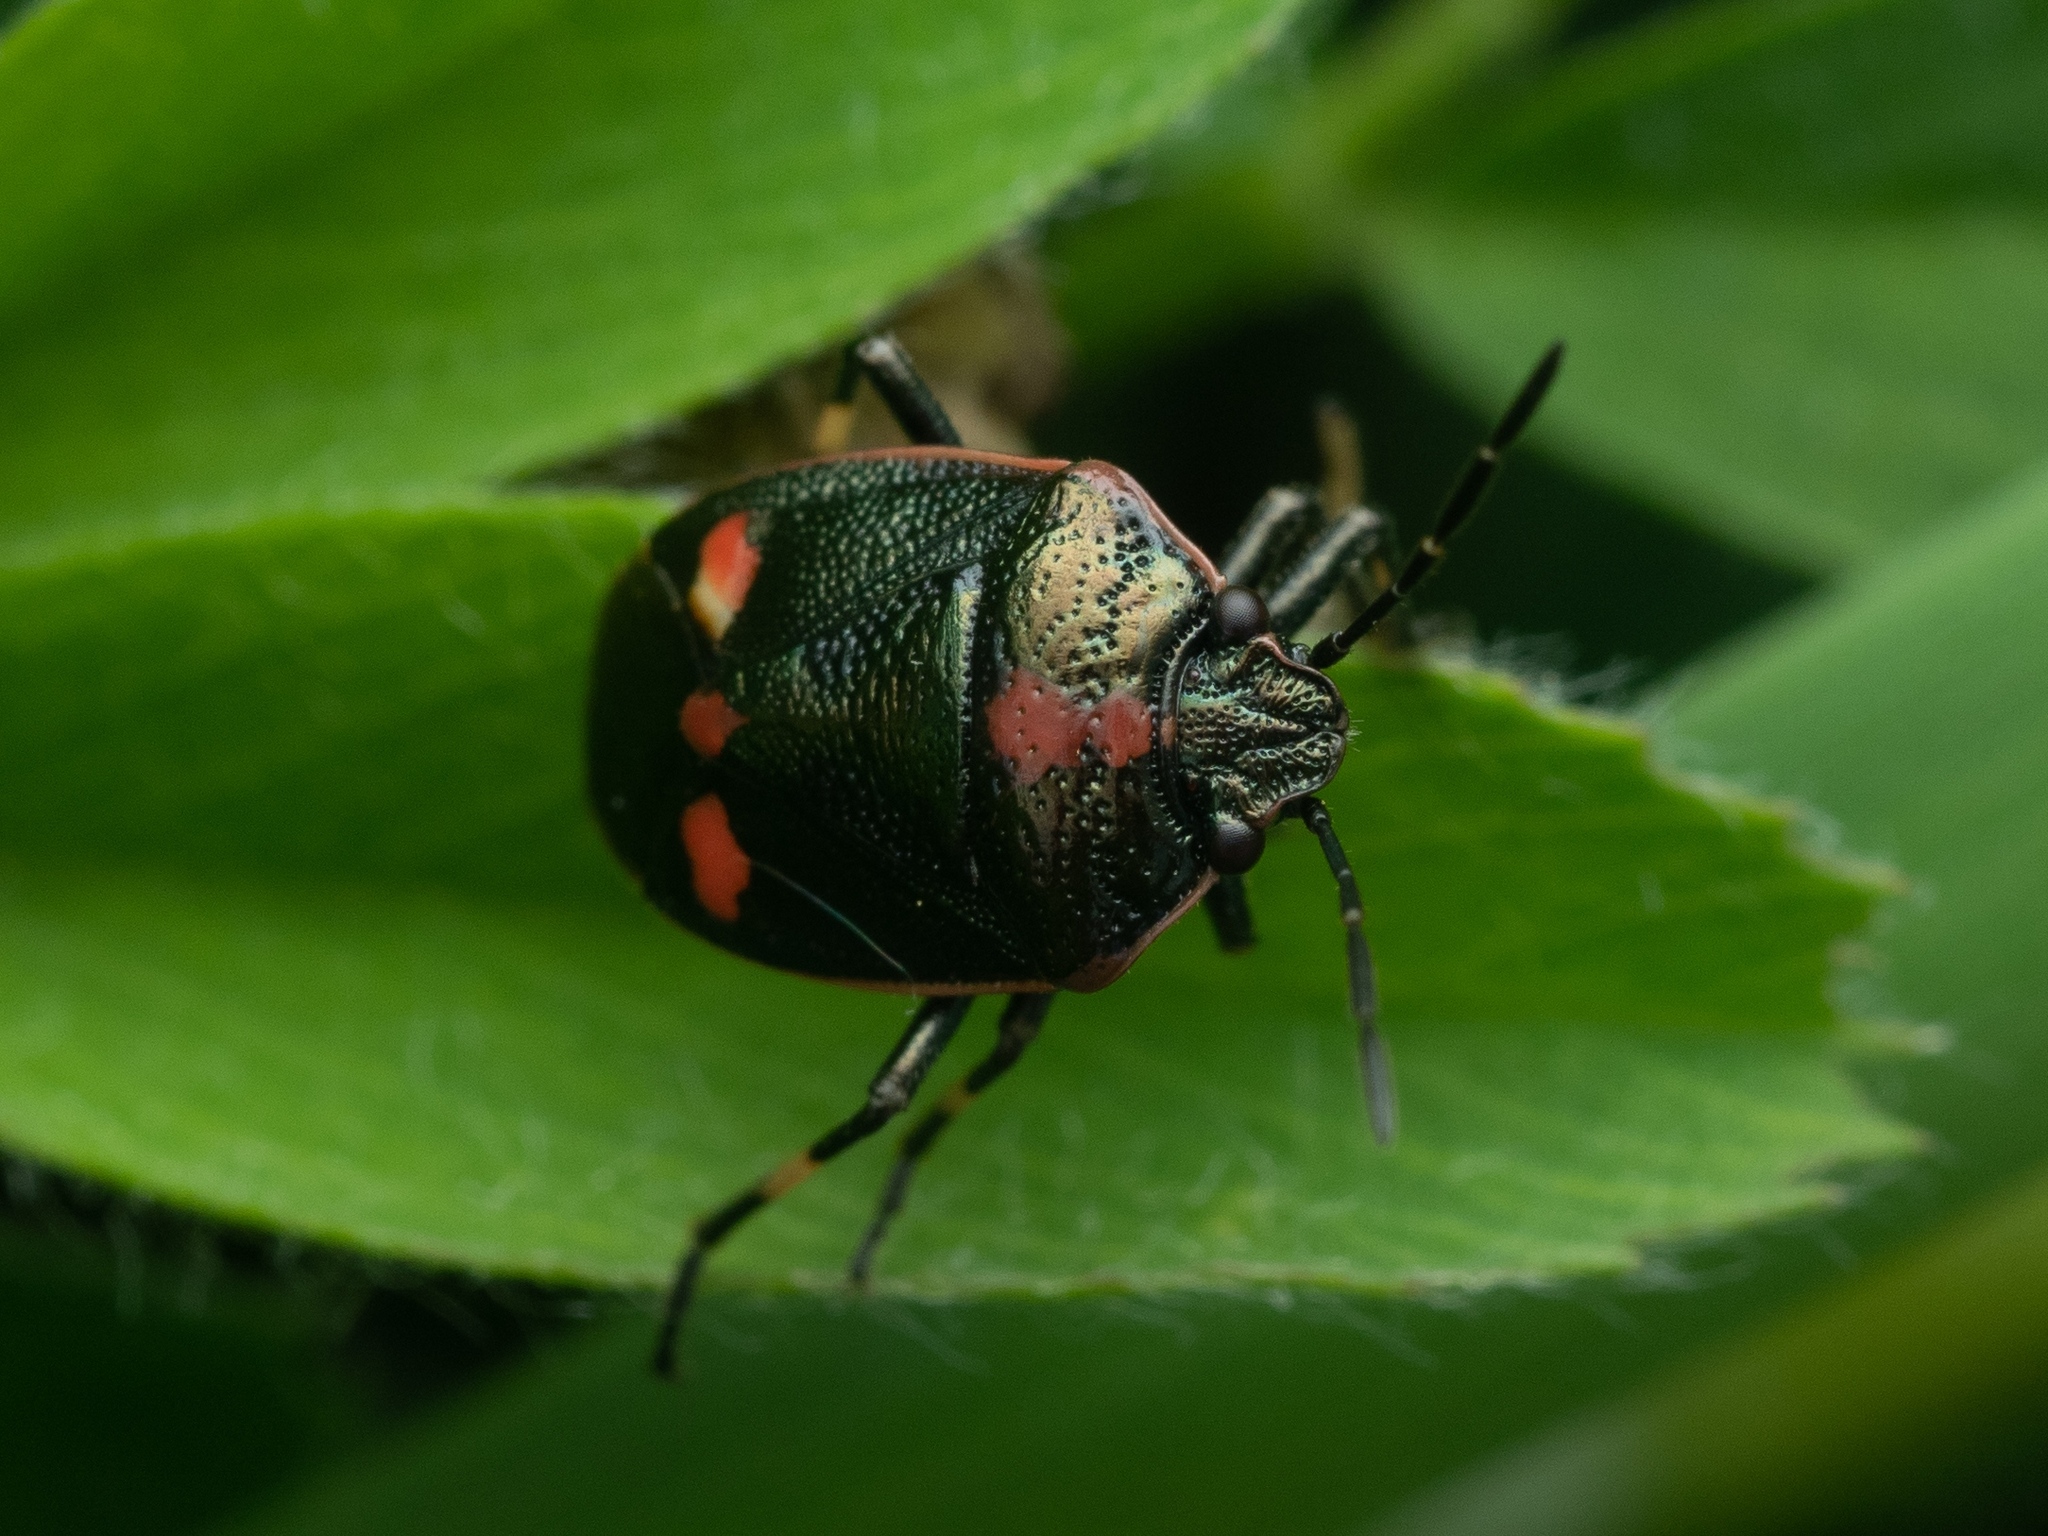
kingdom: Animalia
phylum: Arthropoda
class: Insecta
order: Hemiptera
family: Pentatomidae
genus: Eurydema
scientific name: Eurydema oleracea
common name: Cabbage bug
